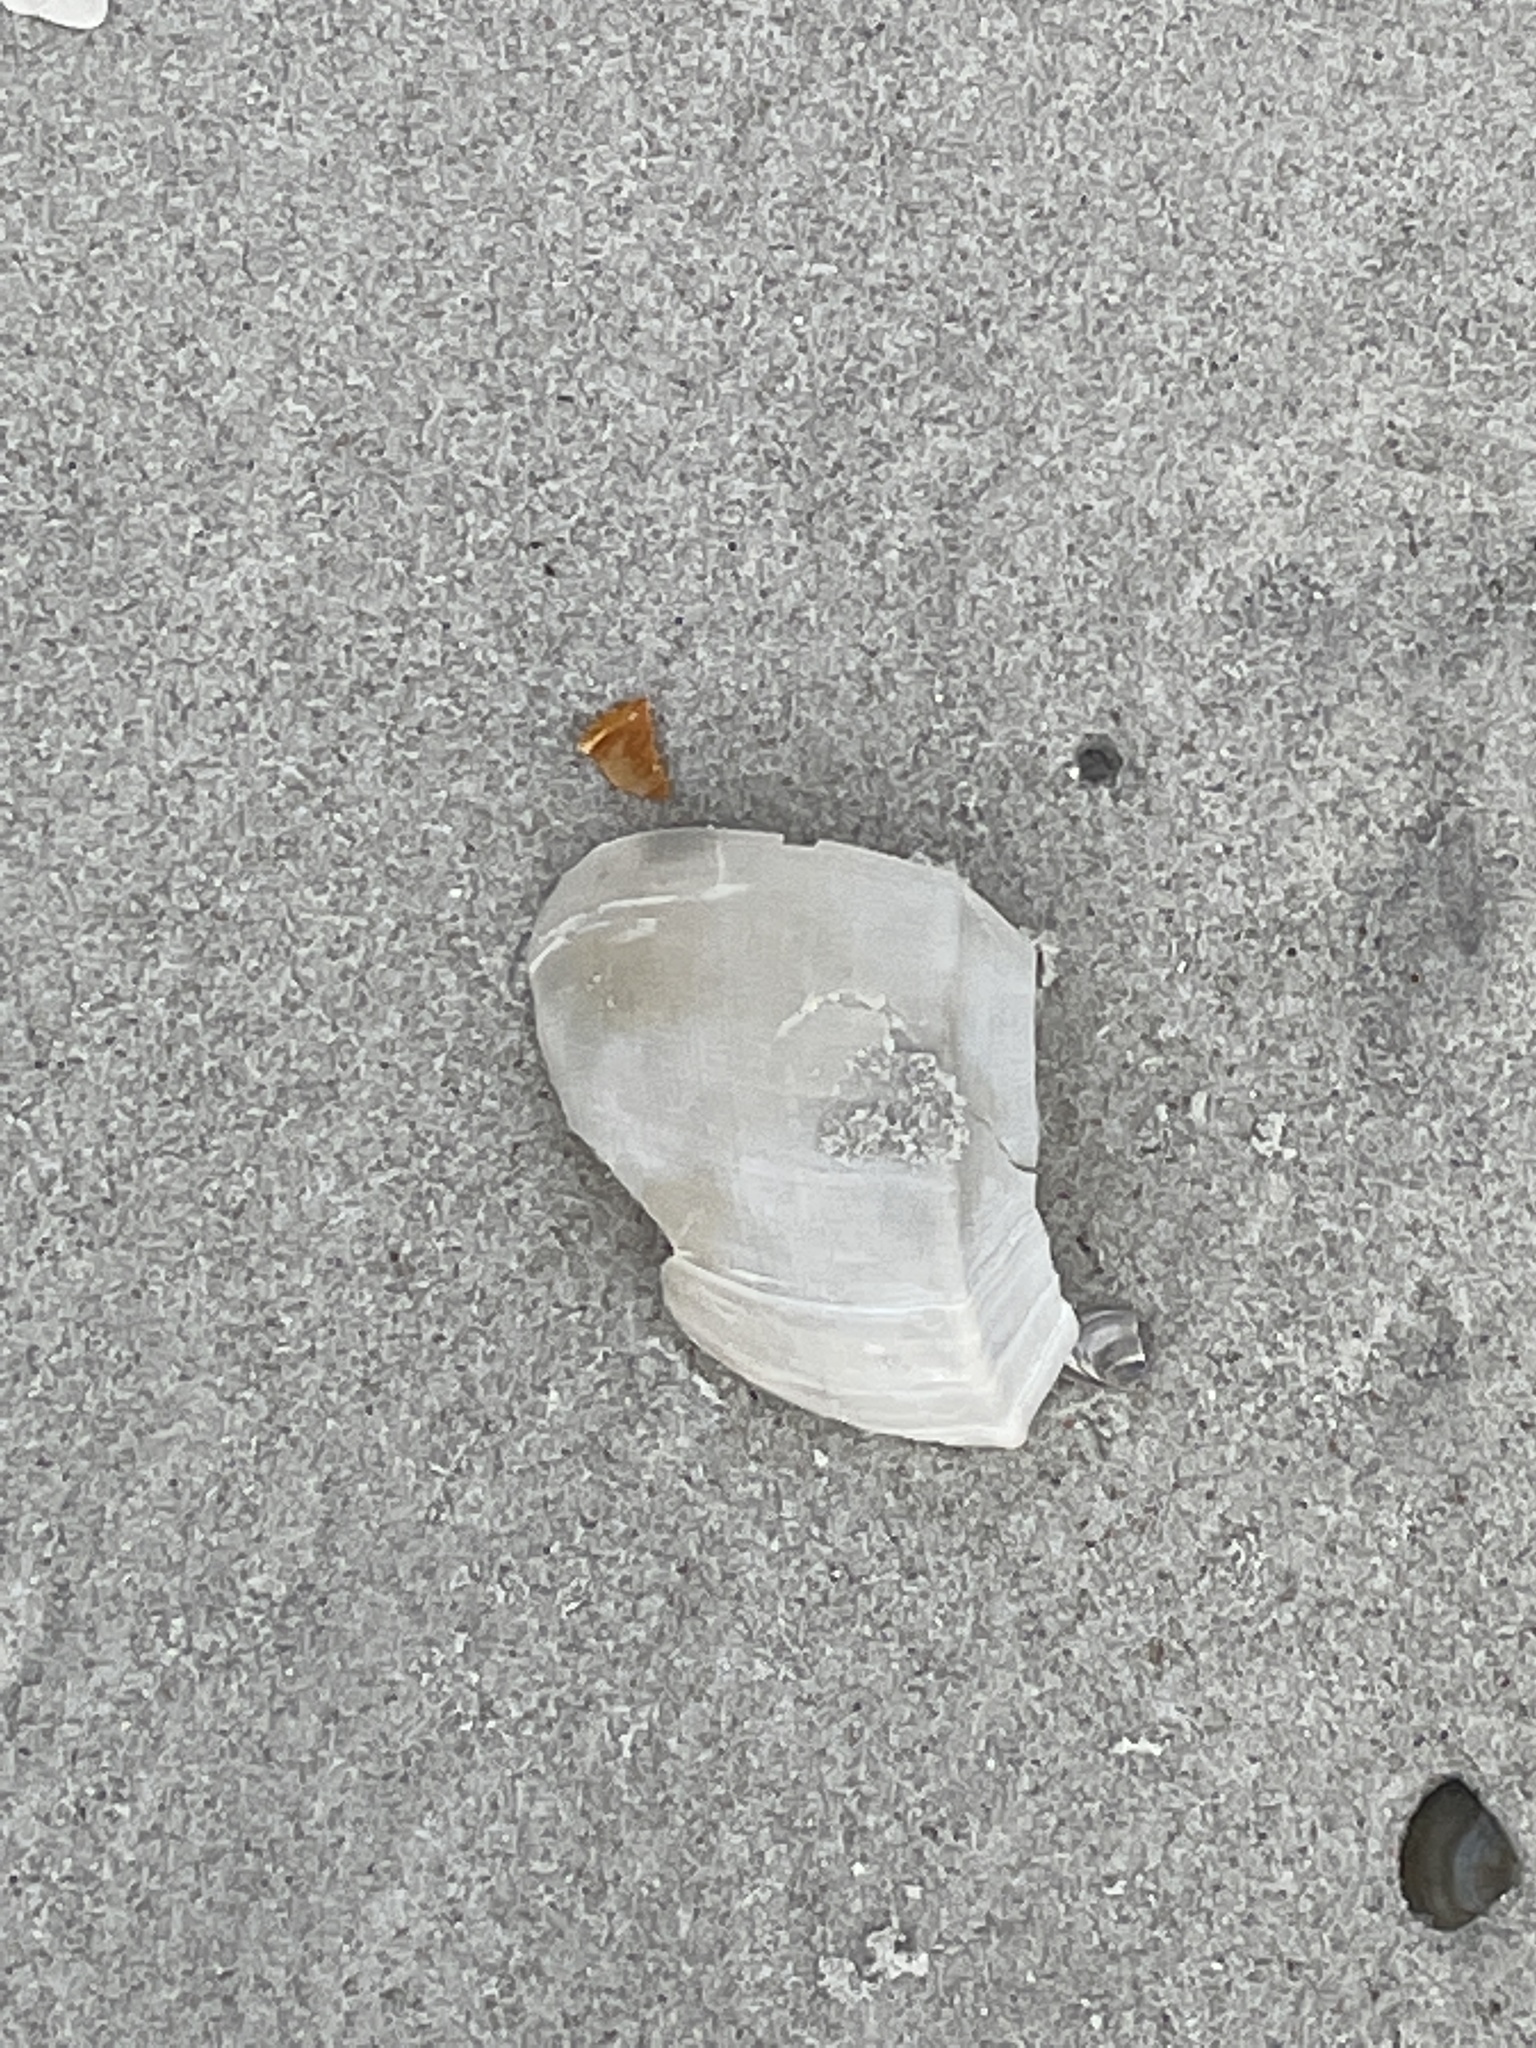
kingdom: Animalia
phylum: Mollusca
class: Gastropoda
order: Neogastropoda
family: Busyconidae
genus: Busycotypus
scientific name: Busycotypus canaliculatus
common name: Channeled whelk
